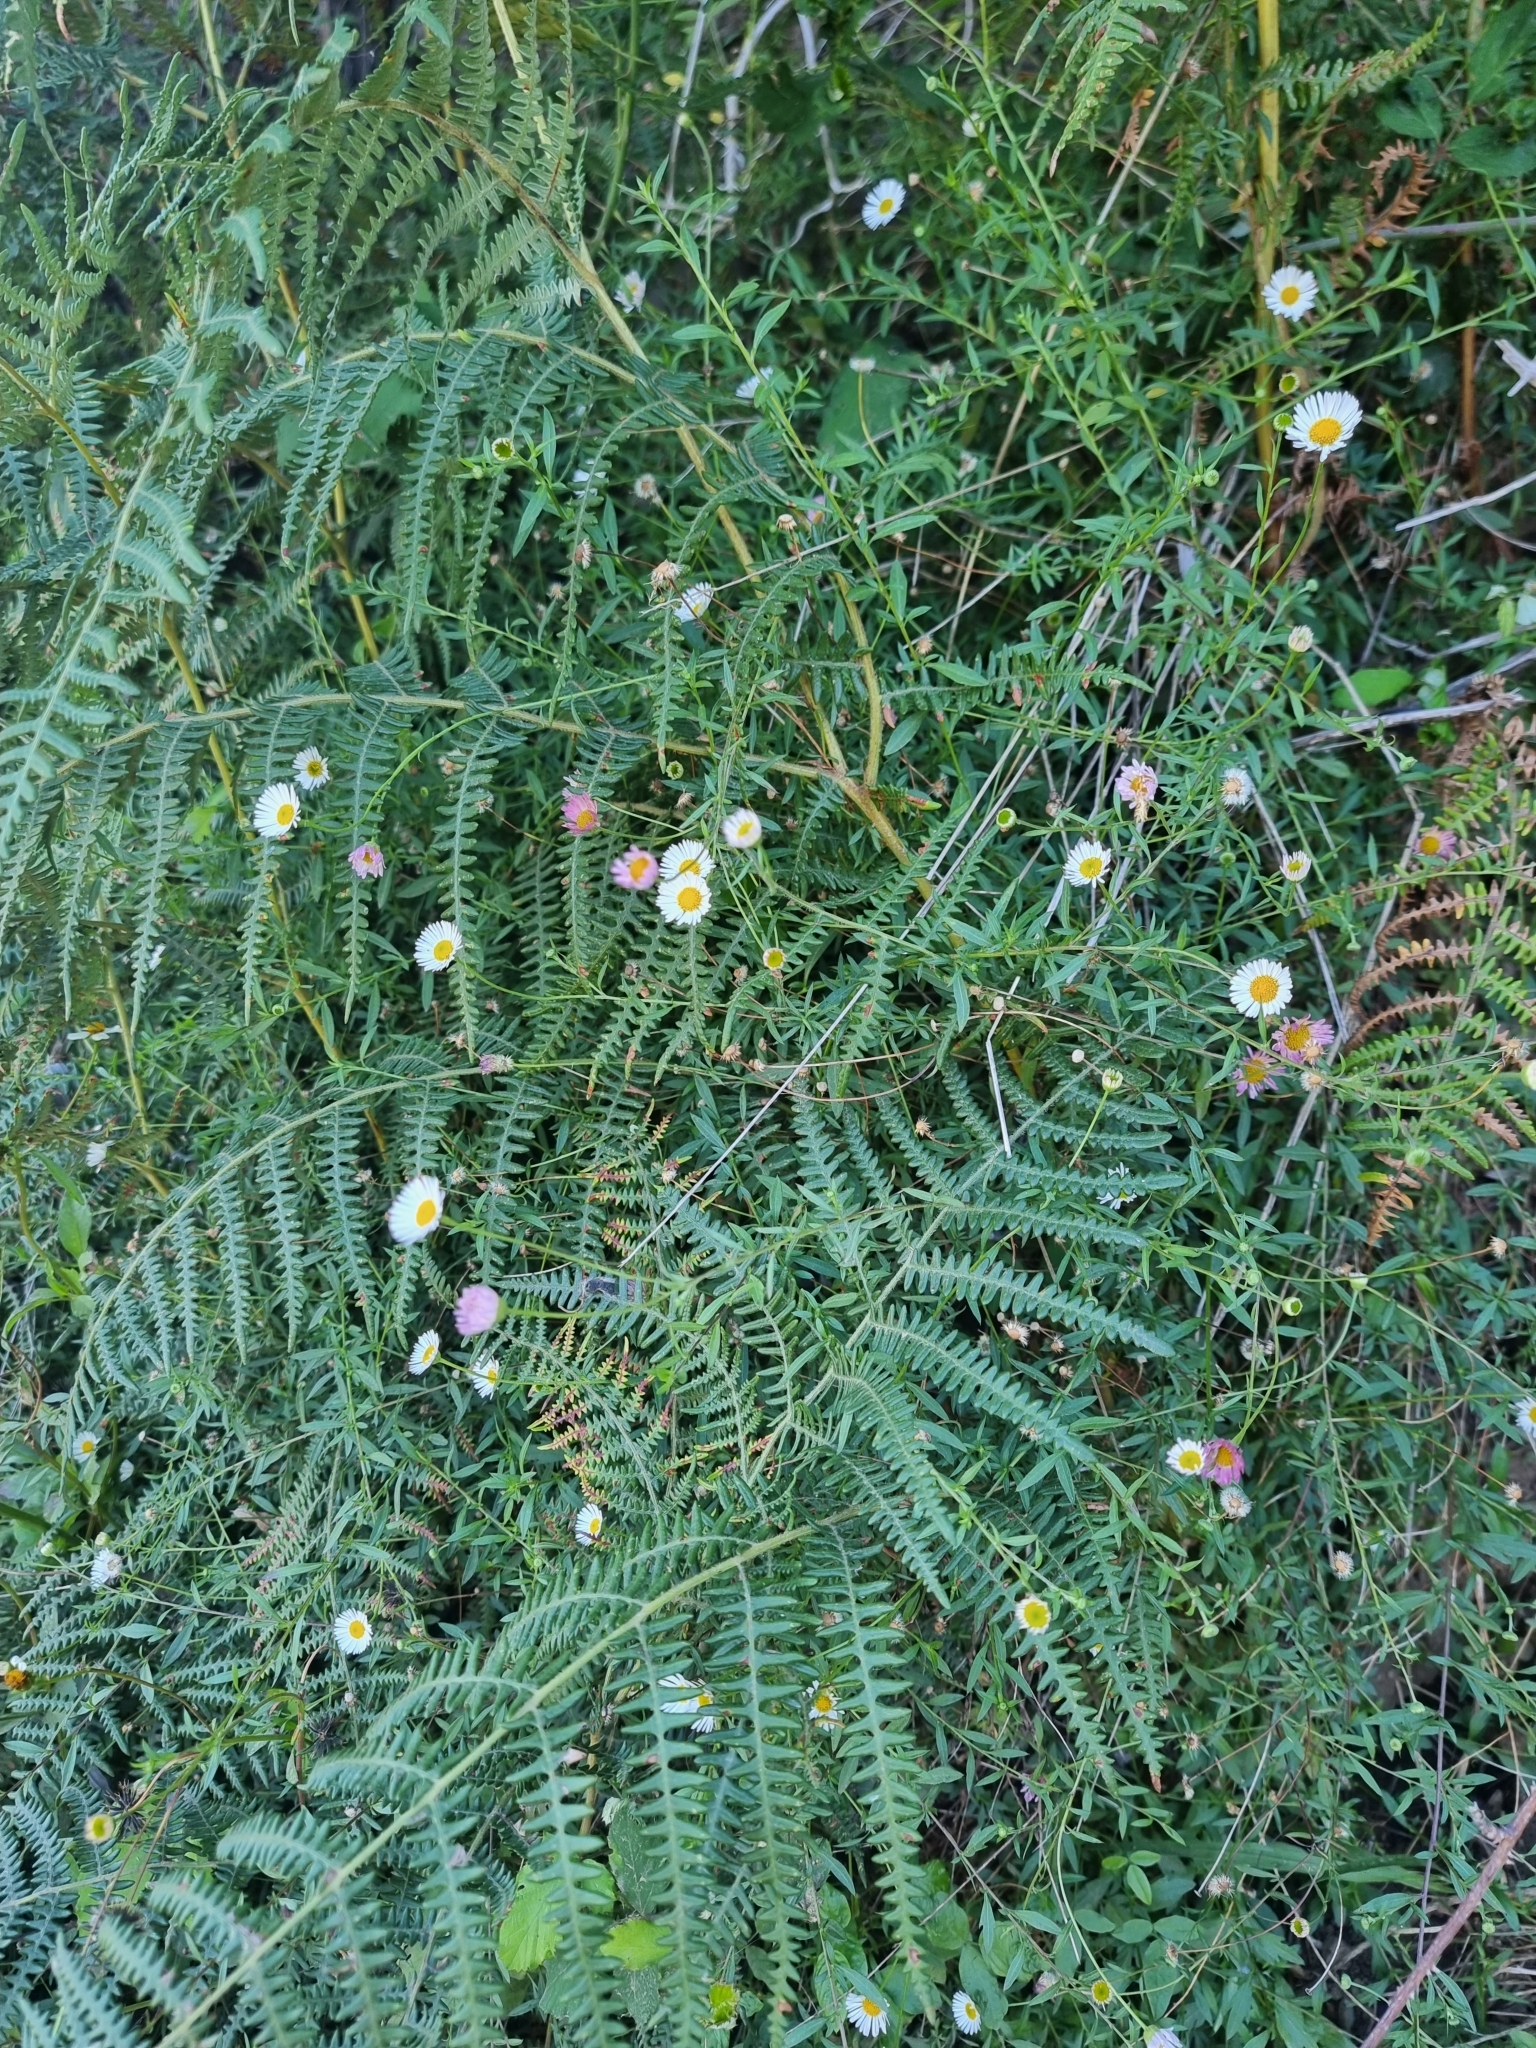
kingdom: Plantae
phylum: Tracheophyta
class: Magnoliopsida
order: Asterales
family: Asteraceae
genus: Erigeron
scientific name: Erigeron karvinskianus
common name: Mexican fleabane
